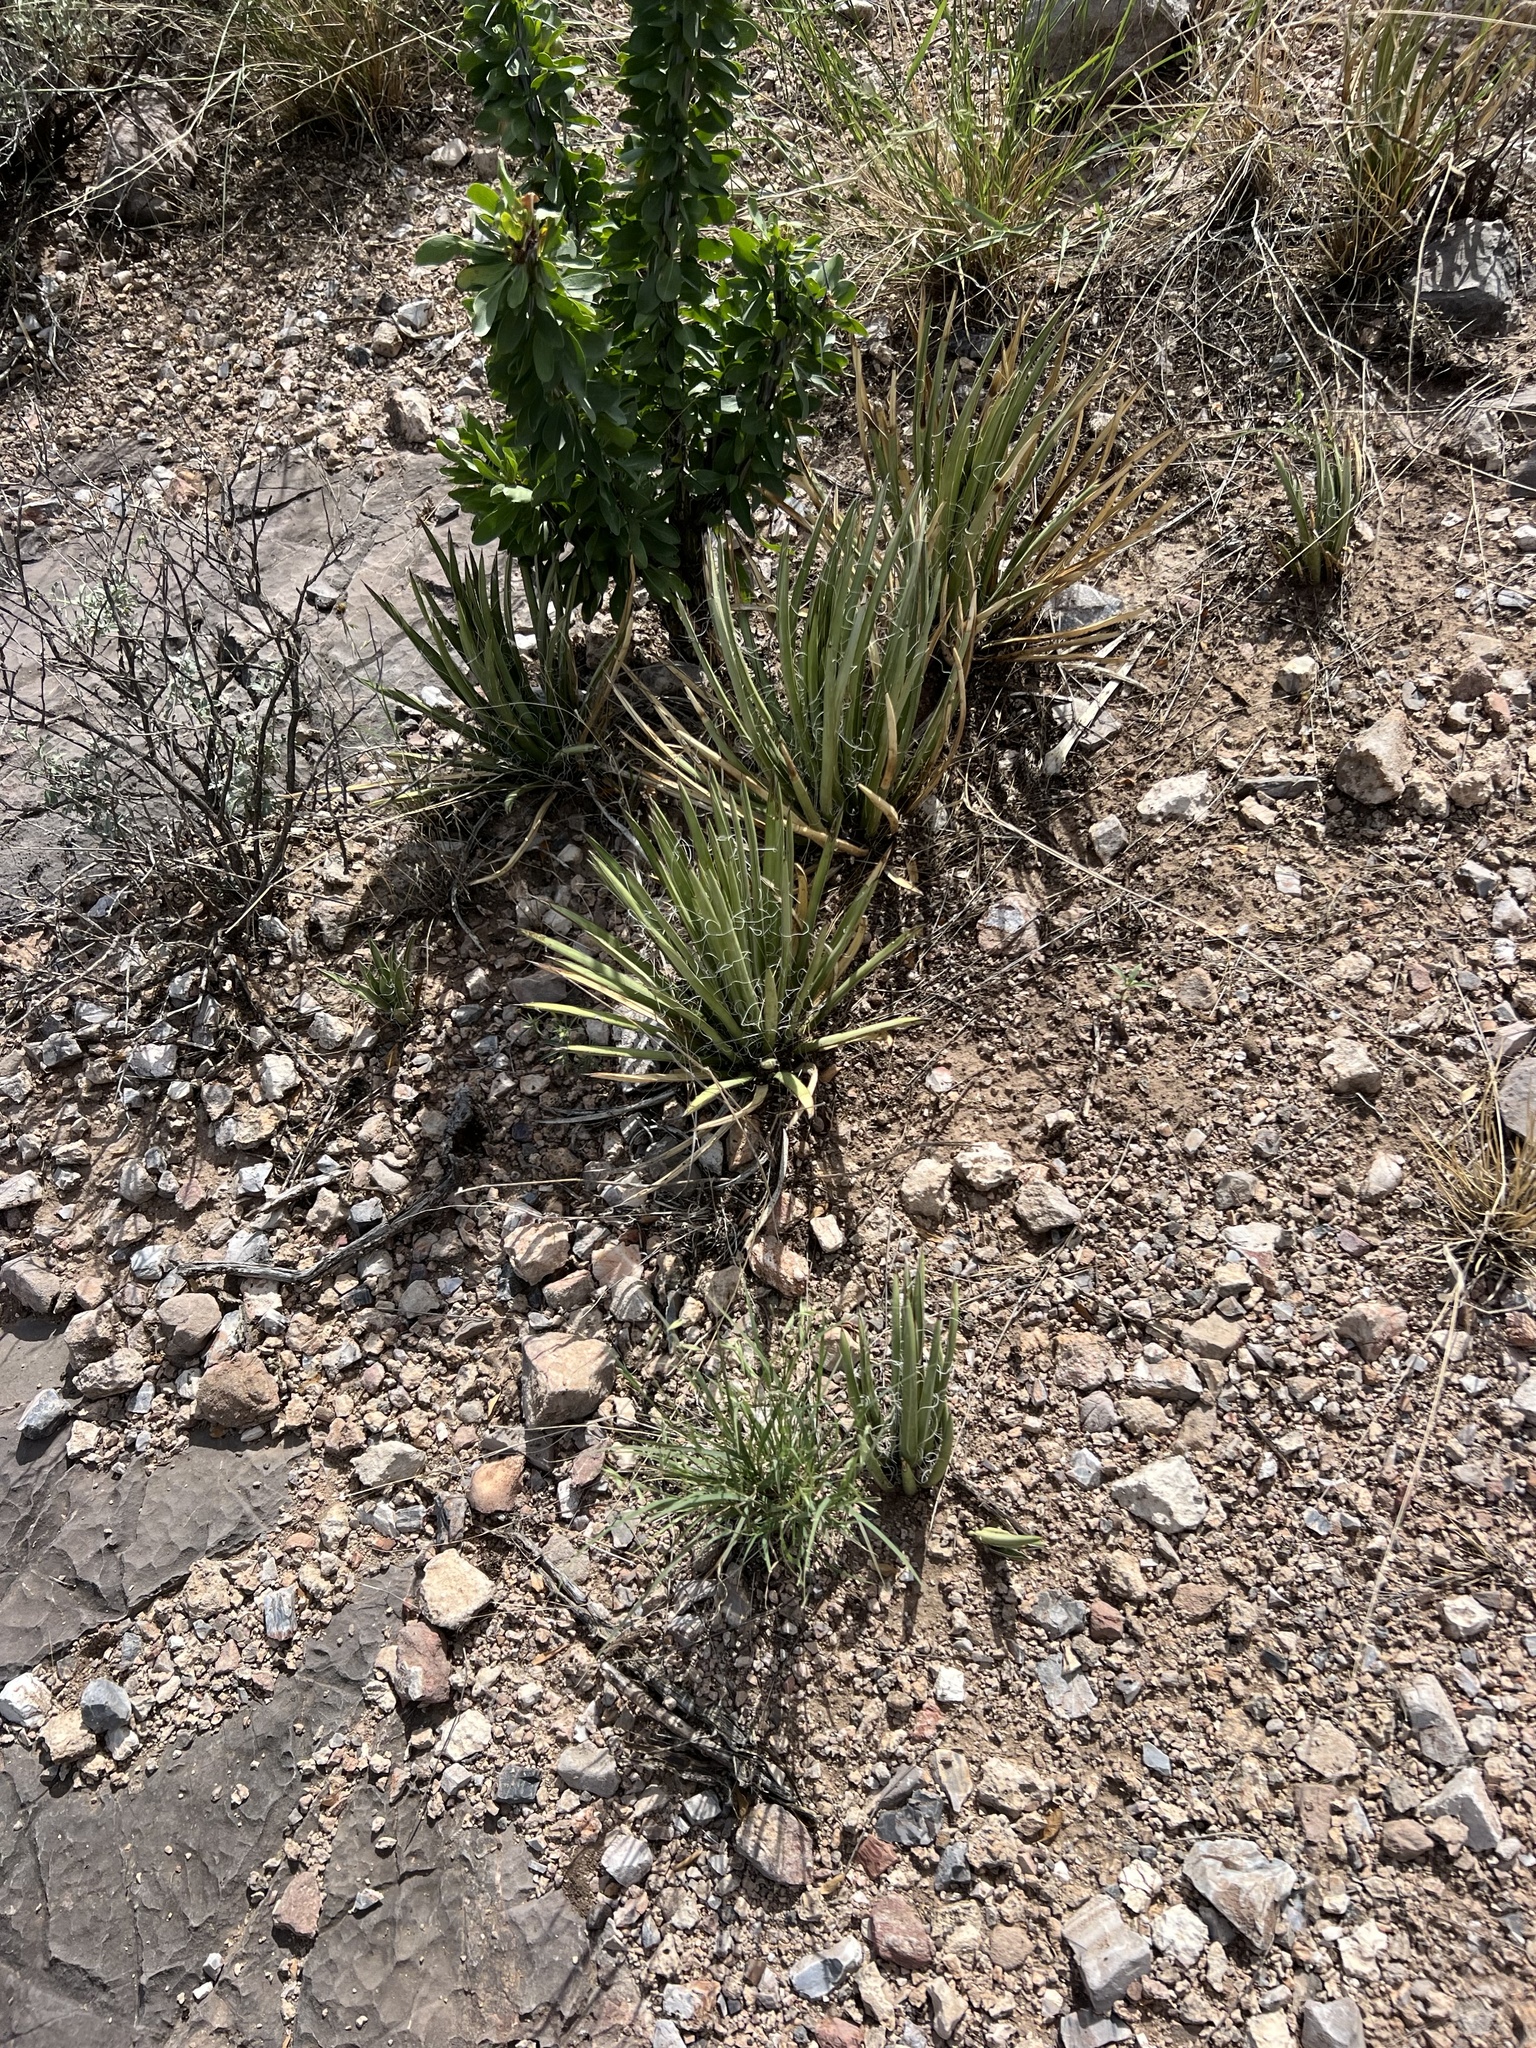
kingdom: Plantae
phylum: Tracheophyta
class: Liliopsida
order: Asparagales
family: Asparagaceae
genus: Agave
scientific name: Agave schottii
